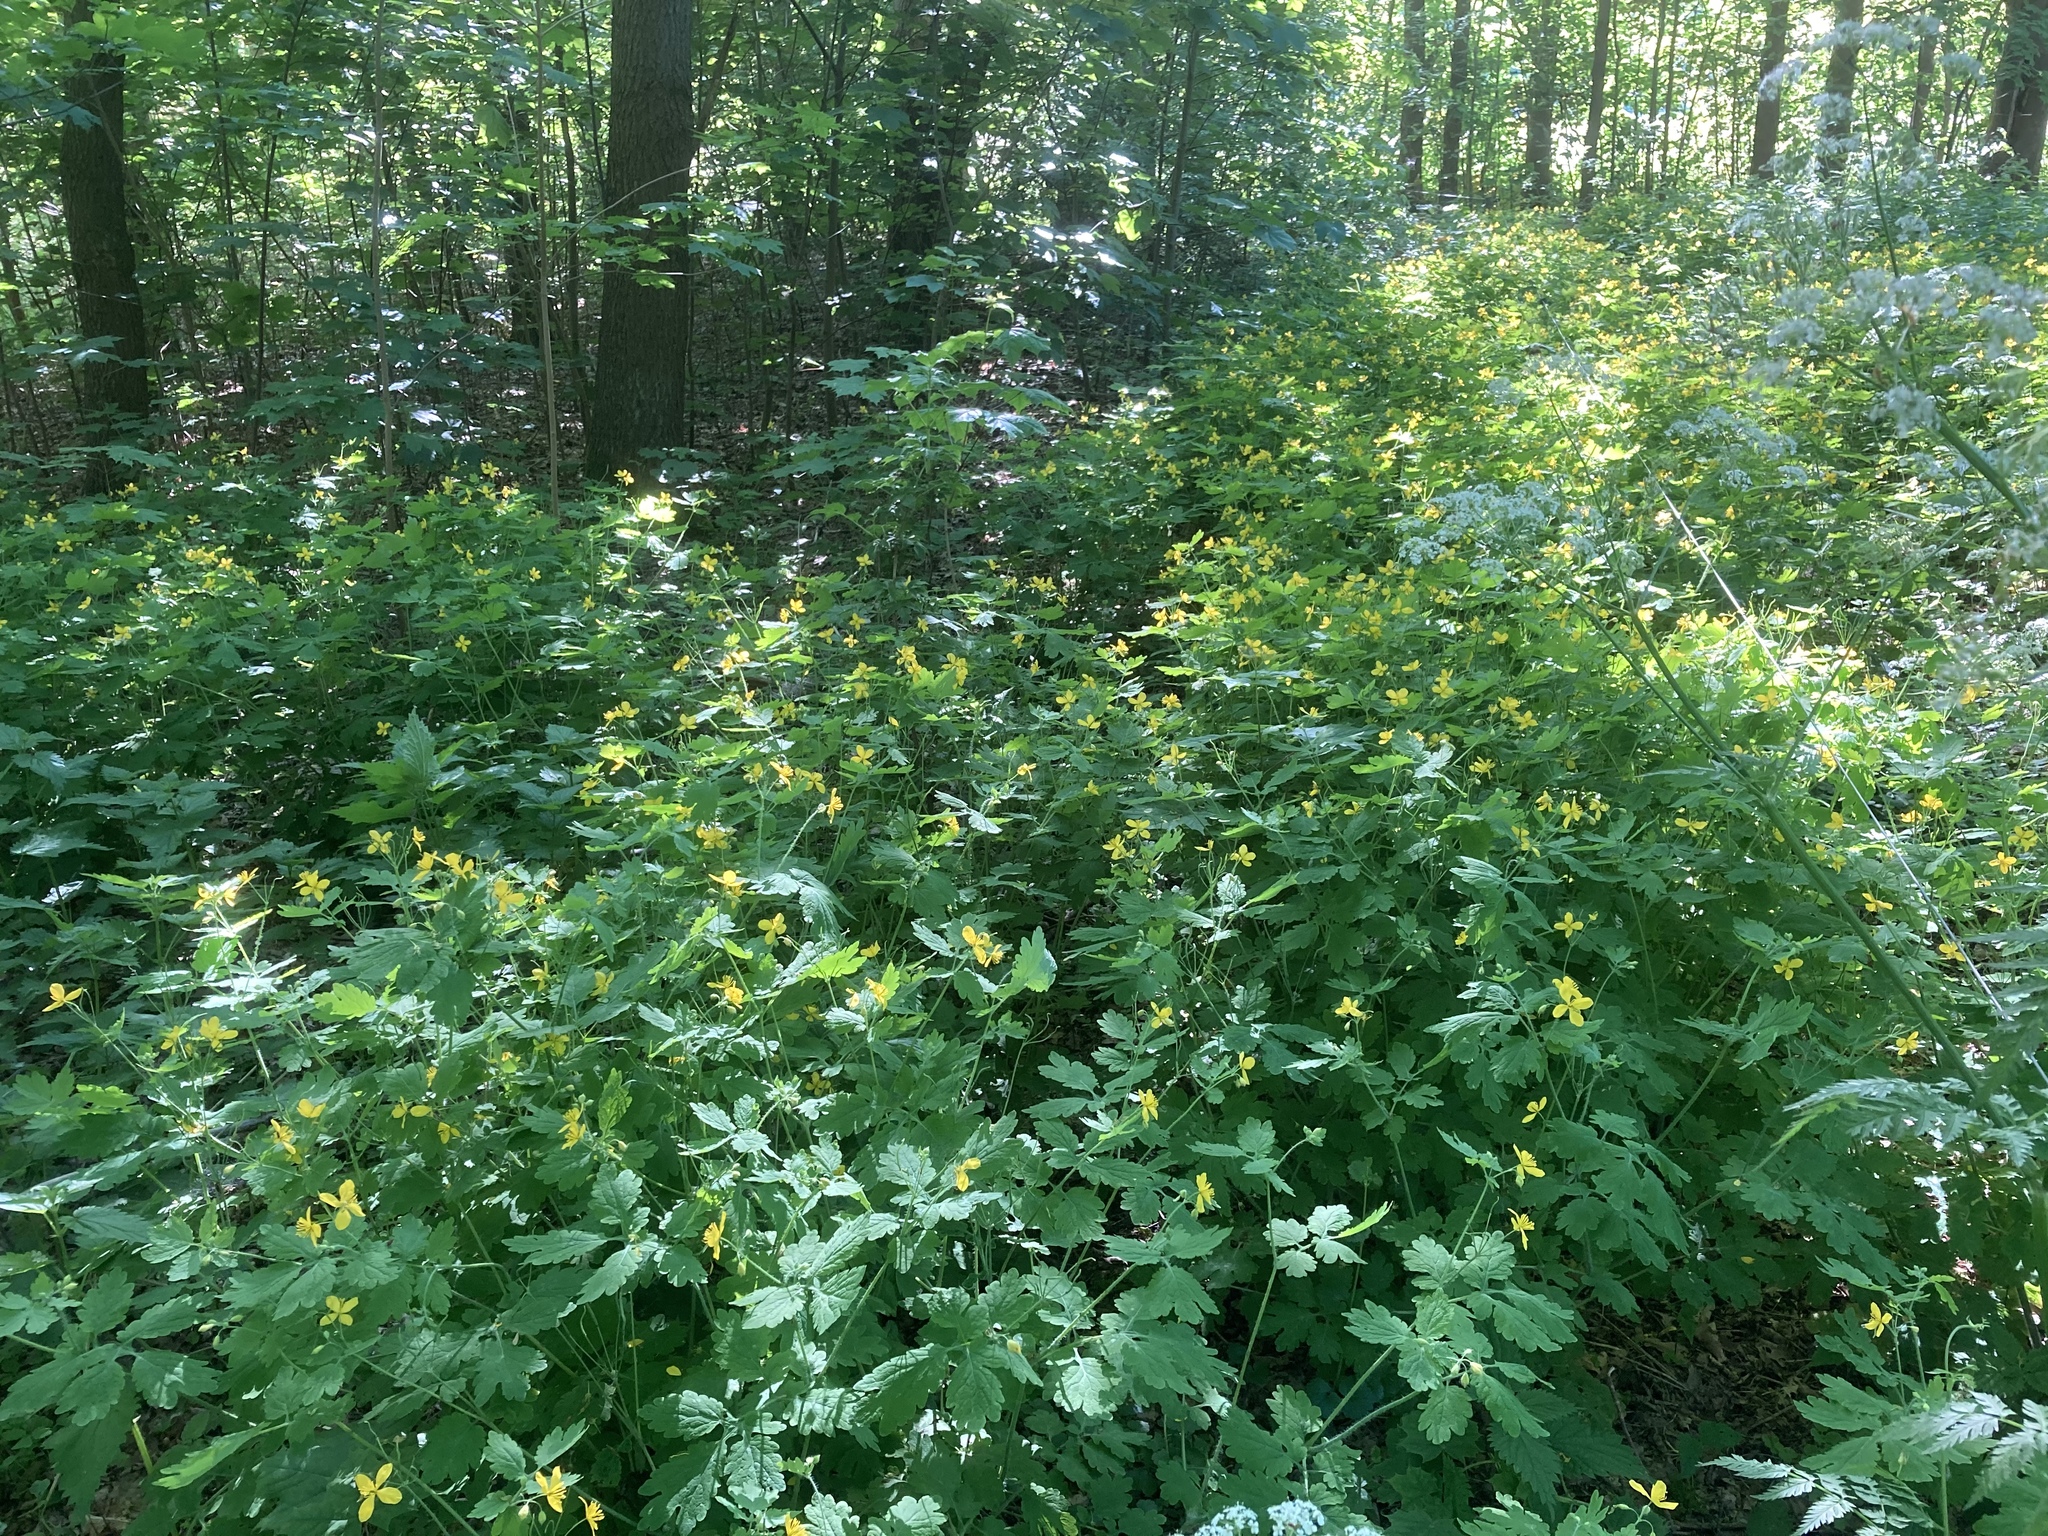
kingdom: Plantae
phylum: Tracheophyta
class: Magnoliopsida
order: Ranunculales
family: Papaveraceae
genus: Chelidonium
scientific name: Chelidonium majus
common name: Greater celandine
